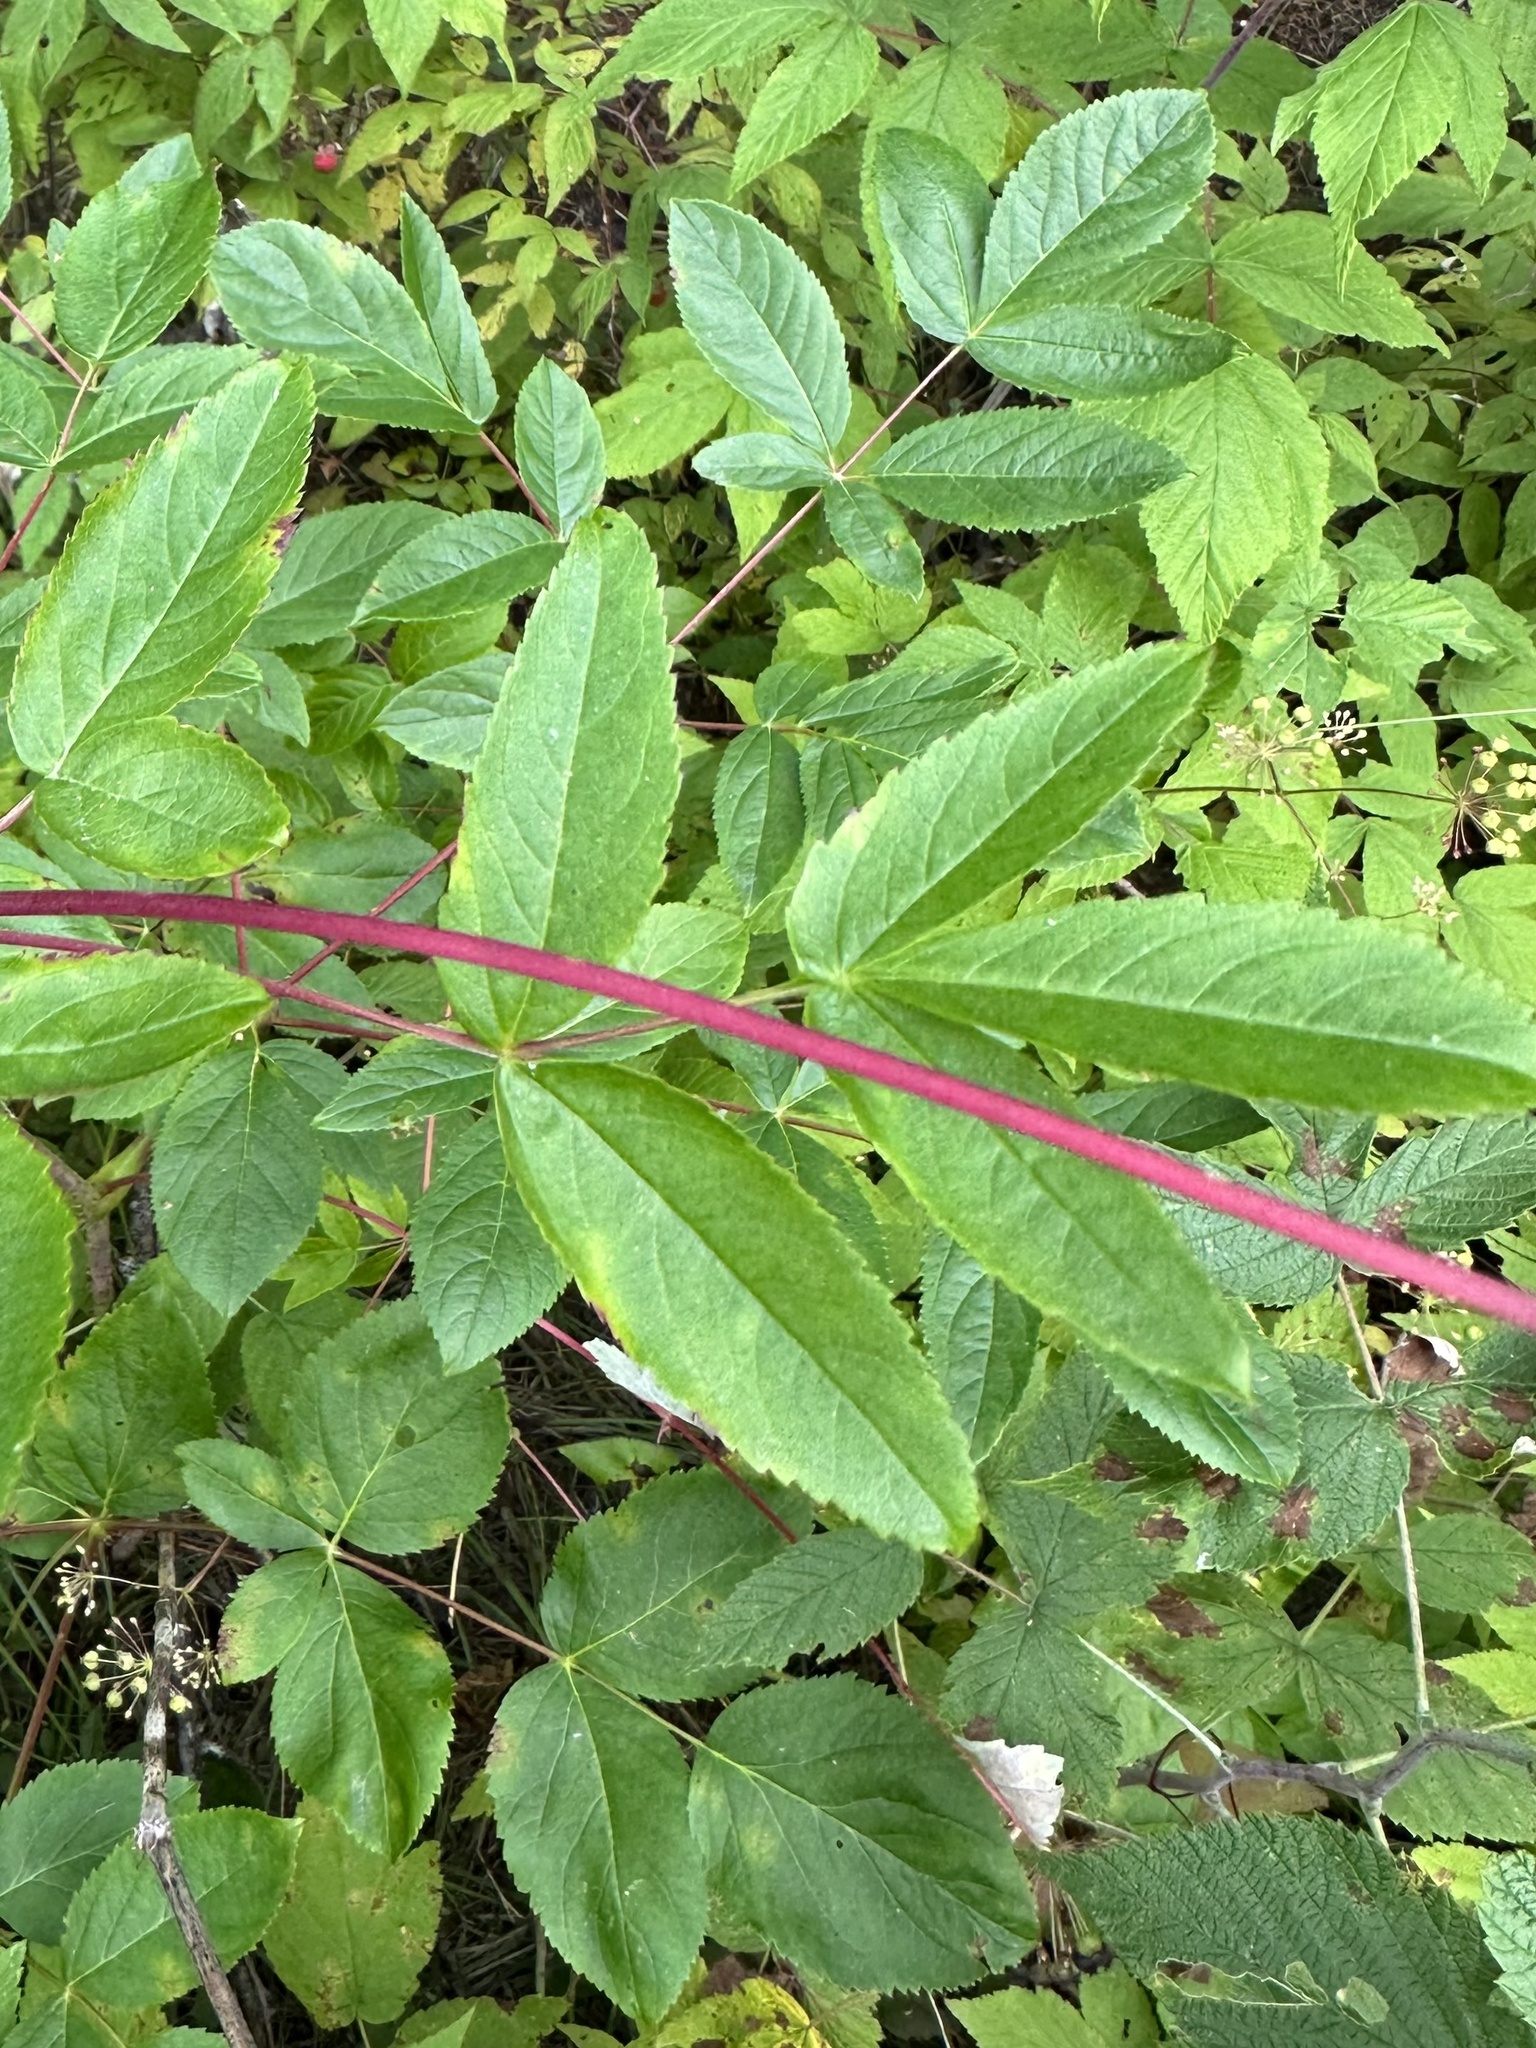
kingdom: Plantae
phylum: Tracheophyta
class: Magnoliopsida
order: Apiales
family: Araliaceae
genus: Aralia
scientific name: Aralia hispida
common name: Bristly sarsaparilla
